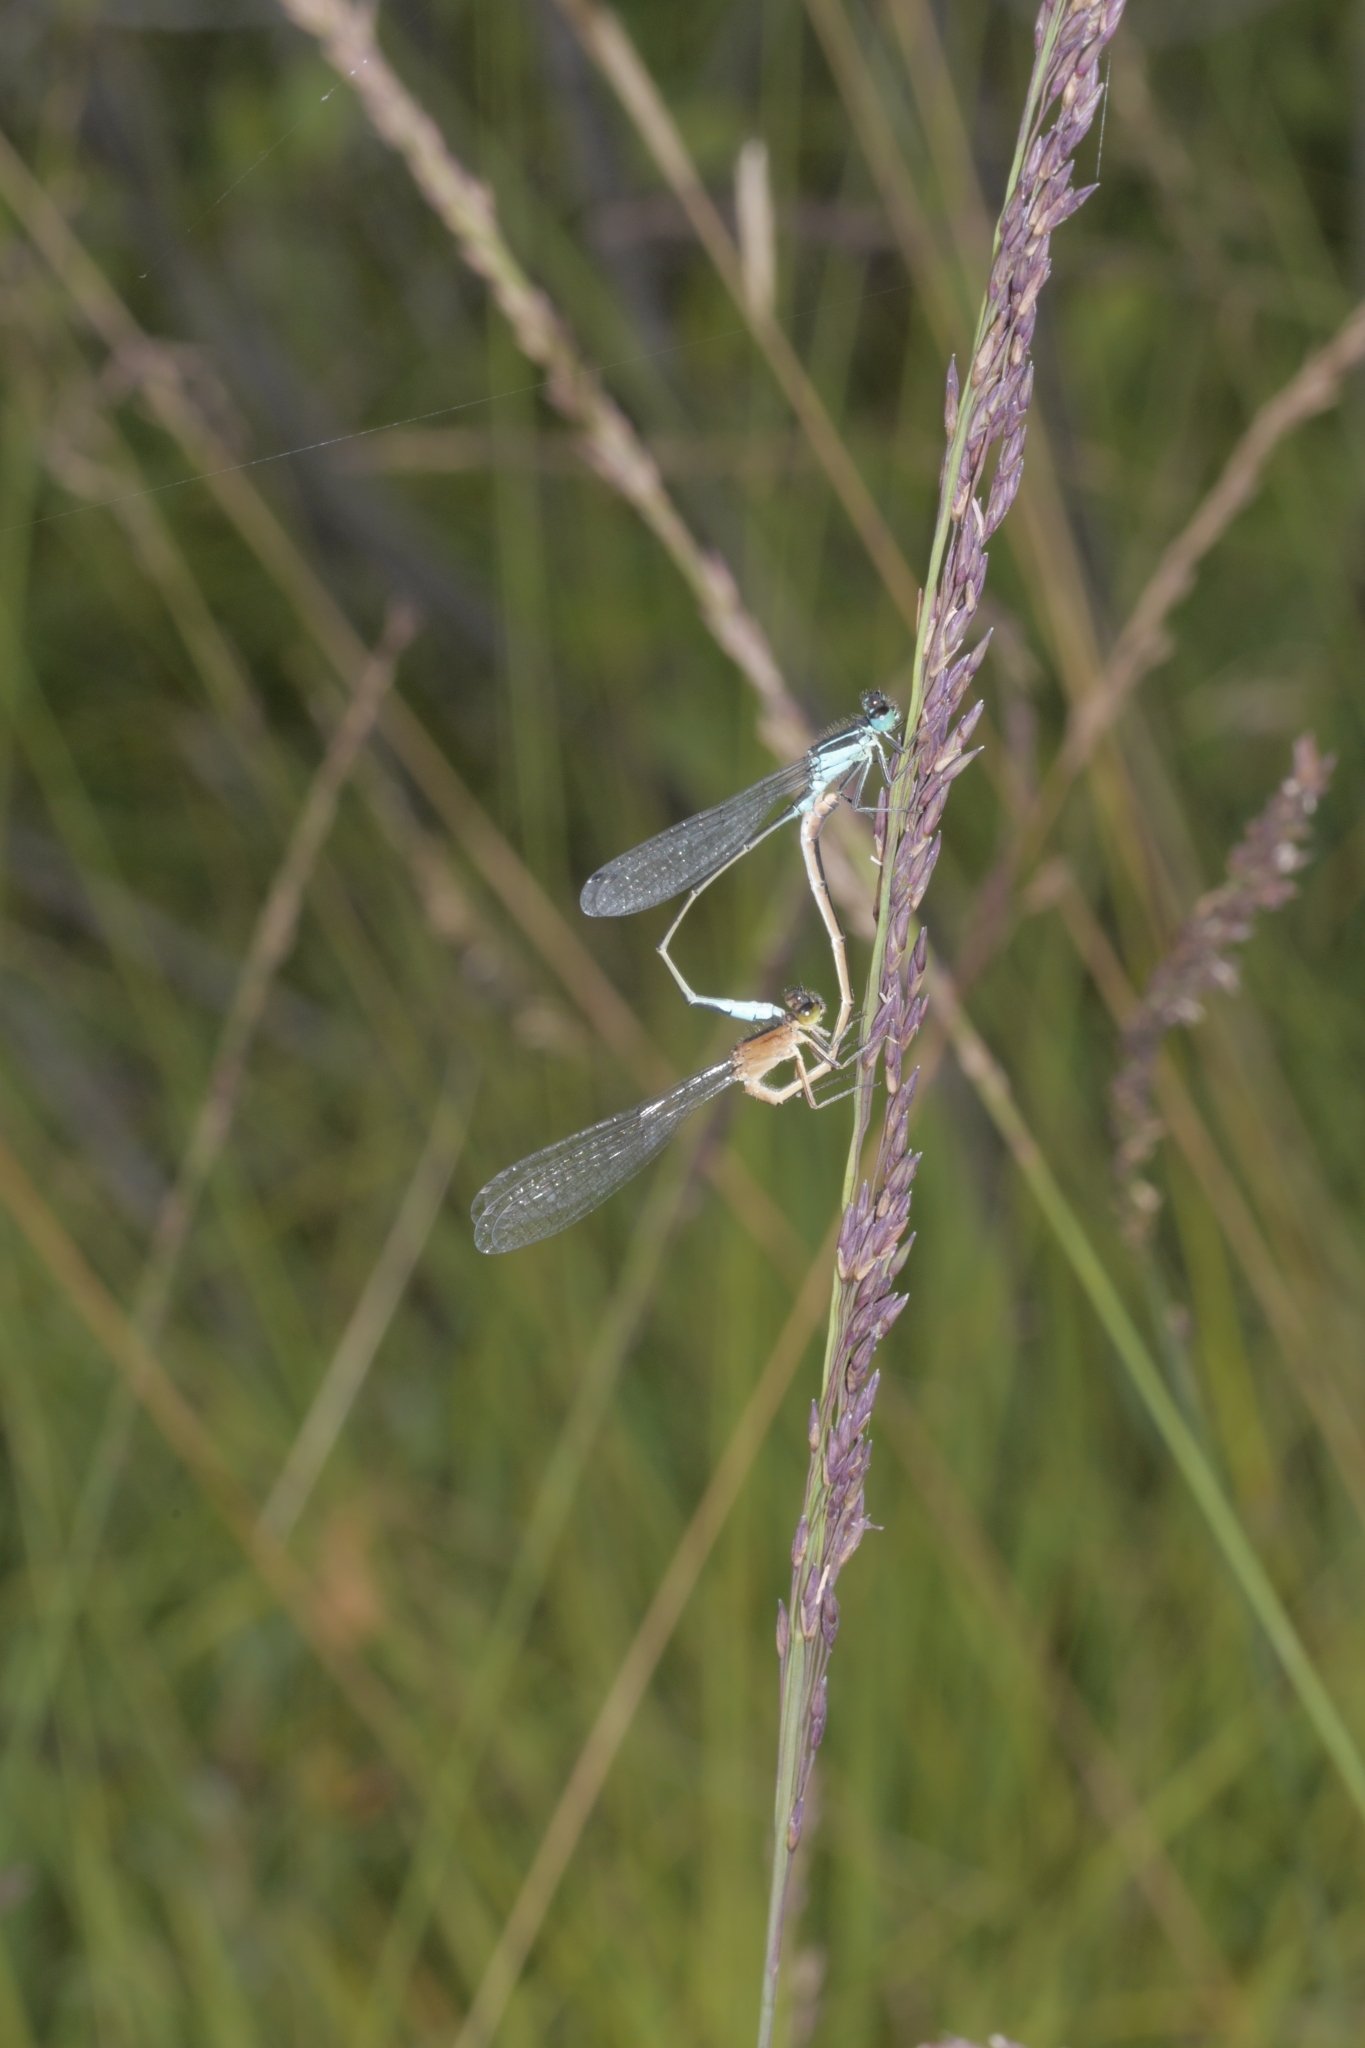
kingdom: Animalia
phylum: Arthropoda
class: Insecta
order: Odonata
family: Coenagrionidae
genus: Ischnura
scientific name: Ischnura elegans
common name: Blue-tailed damselfly
